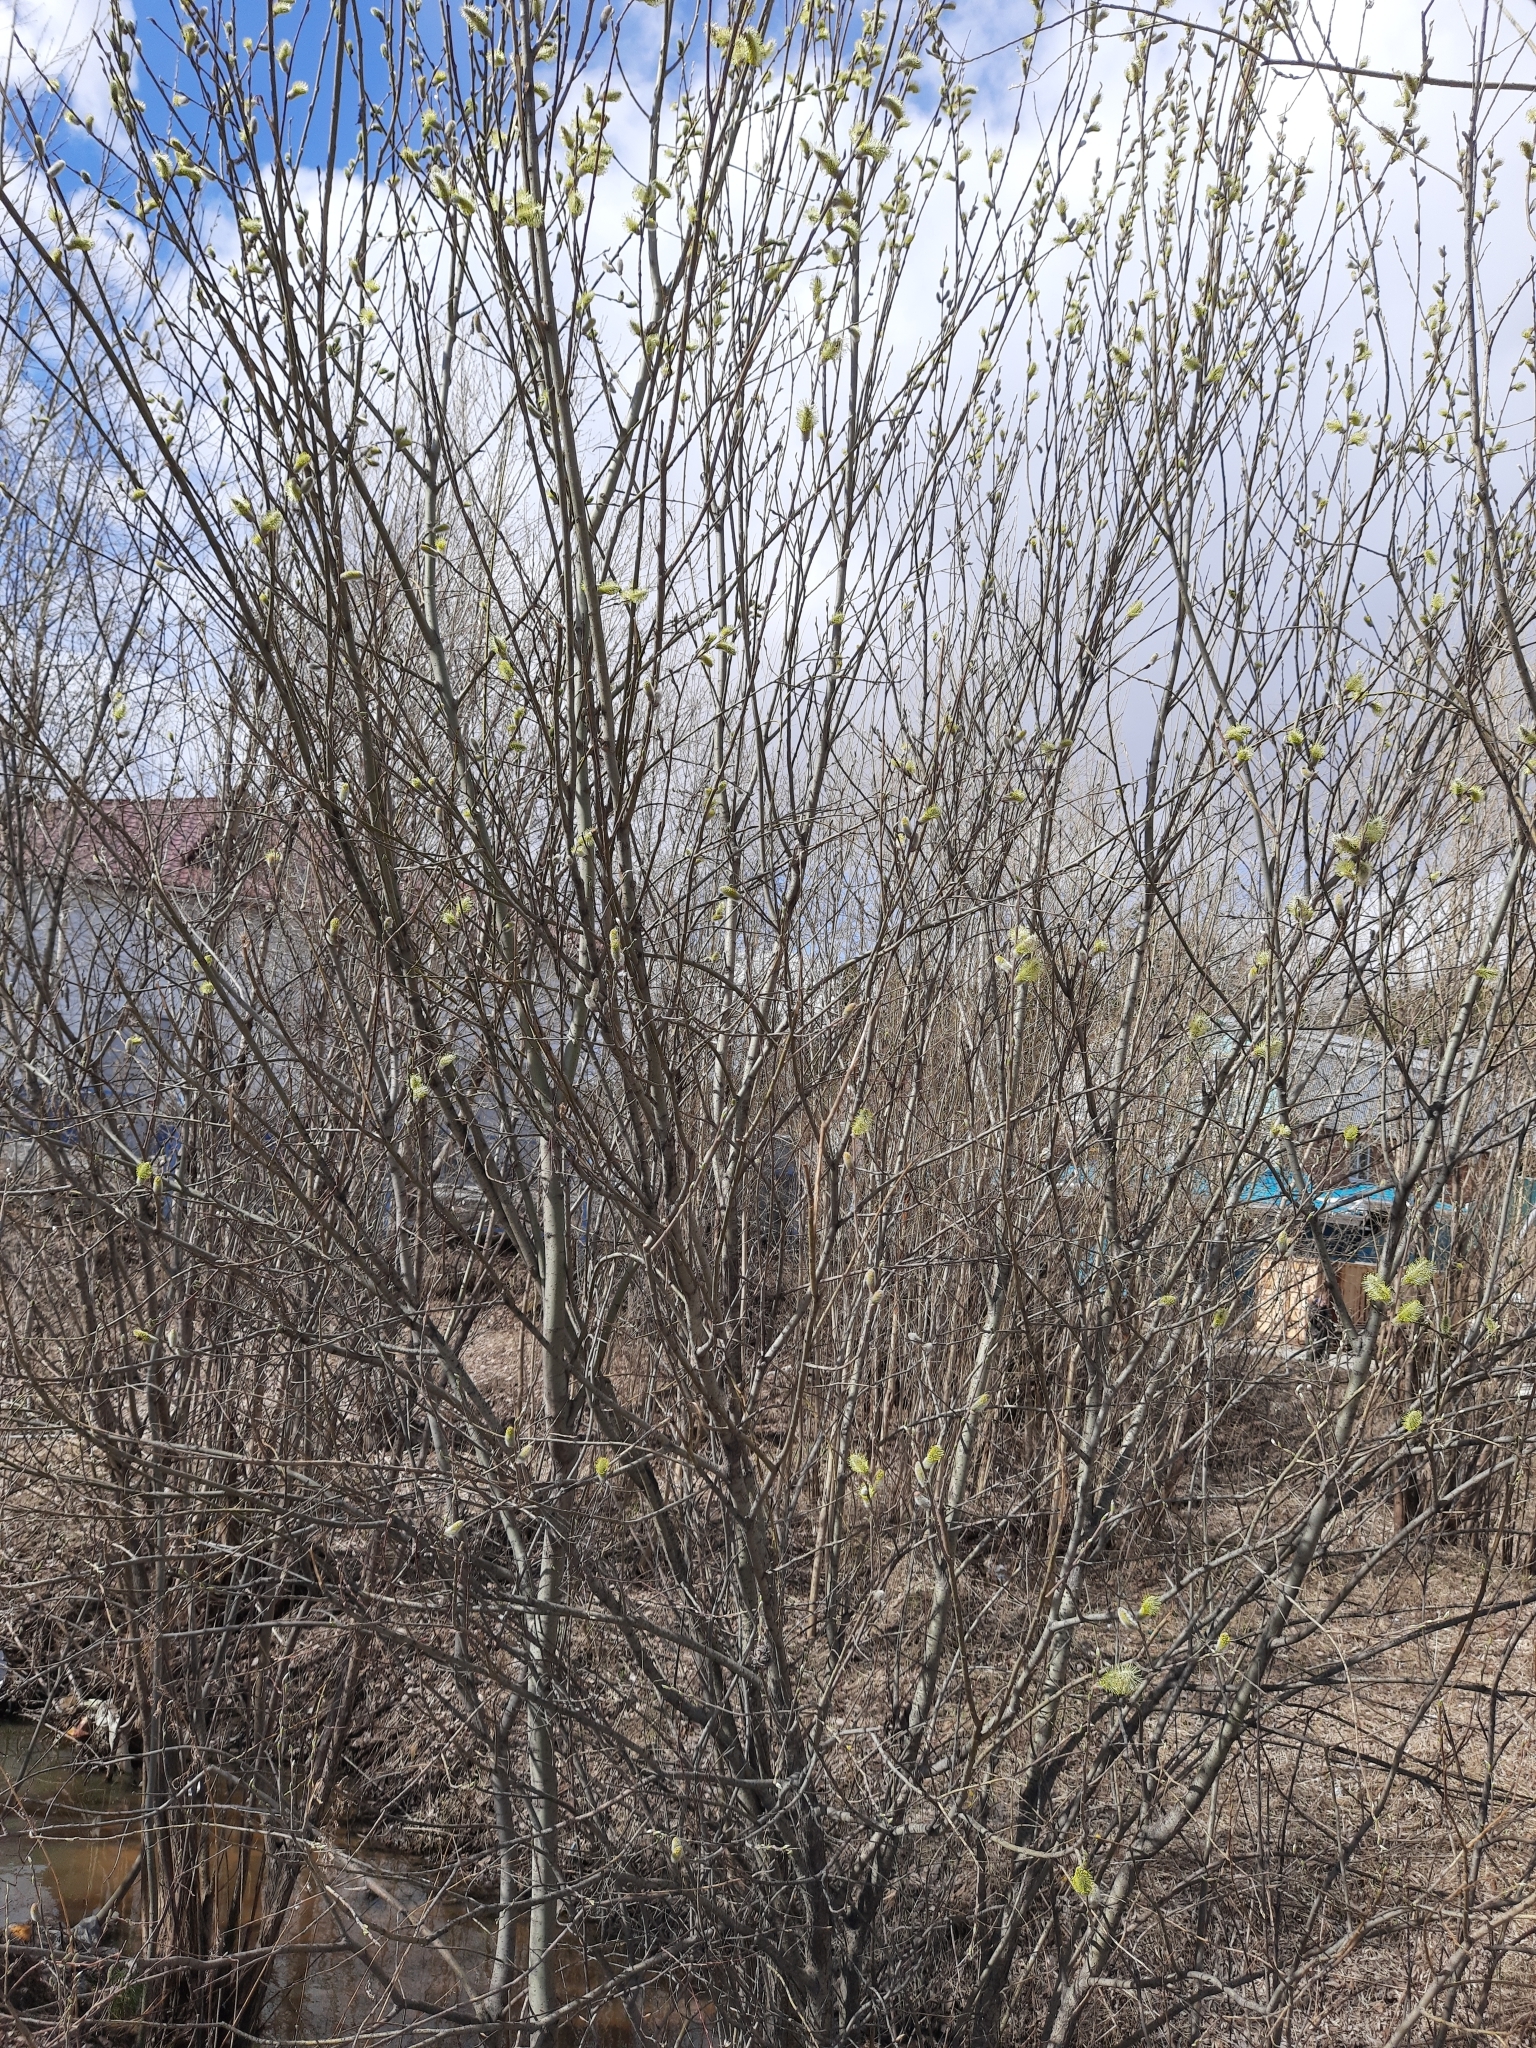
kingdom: Plantae
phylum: Tracheophyta
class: Magnoliopsida
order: Malpighiales
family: Salicaceae
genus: Salix
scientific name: Salix caprea
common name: Goat willow
